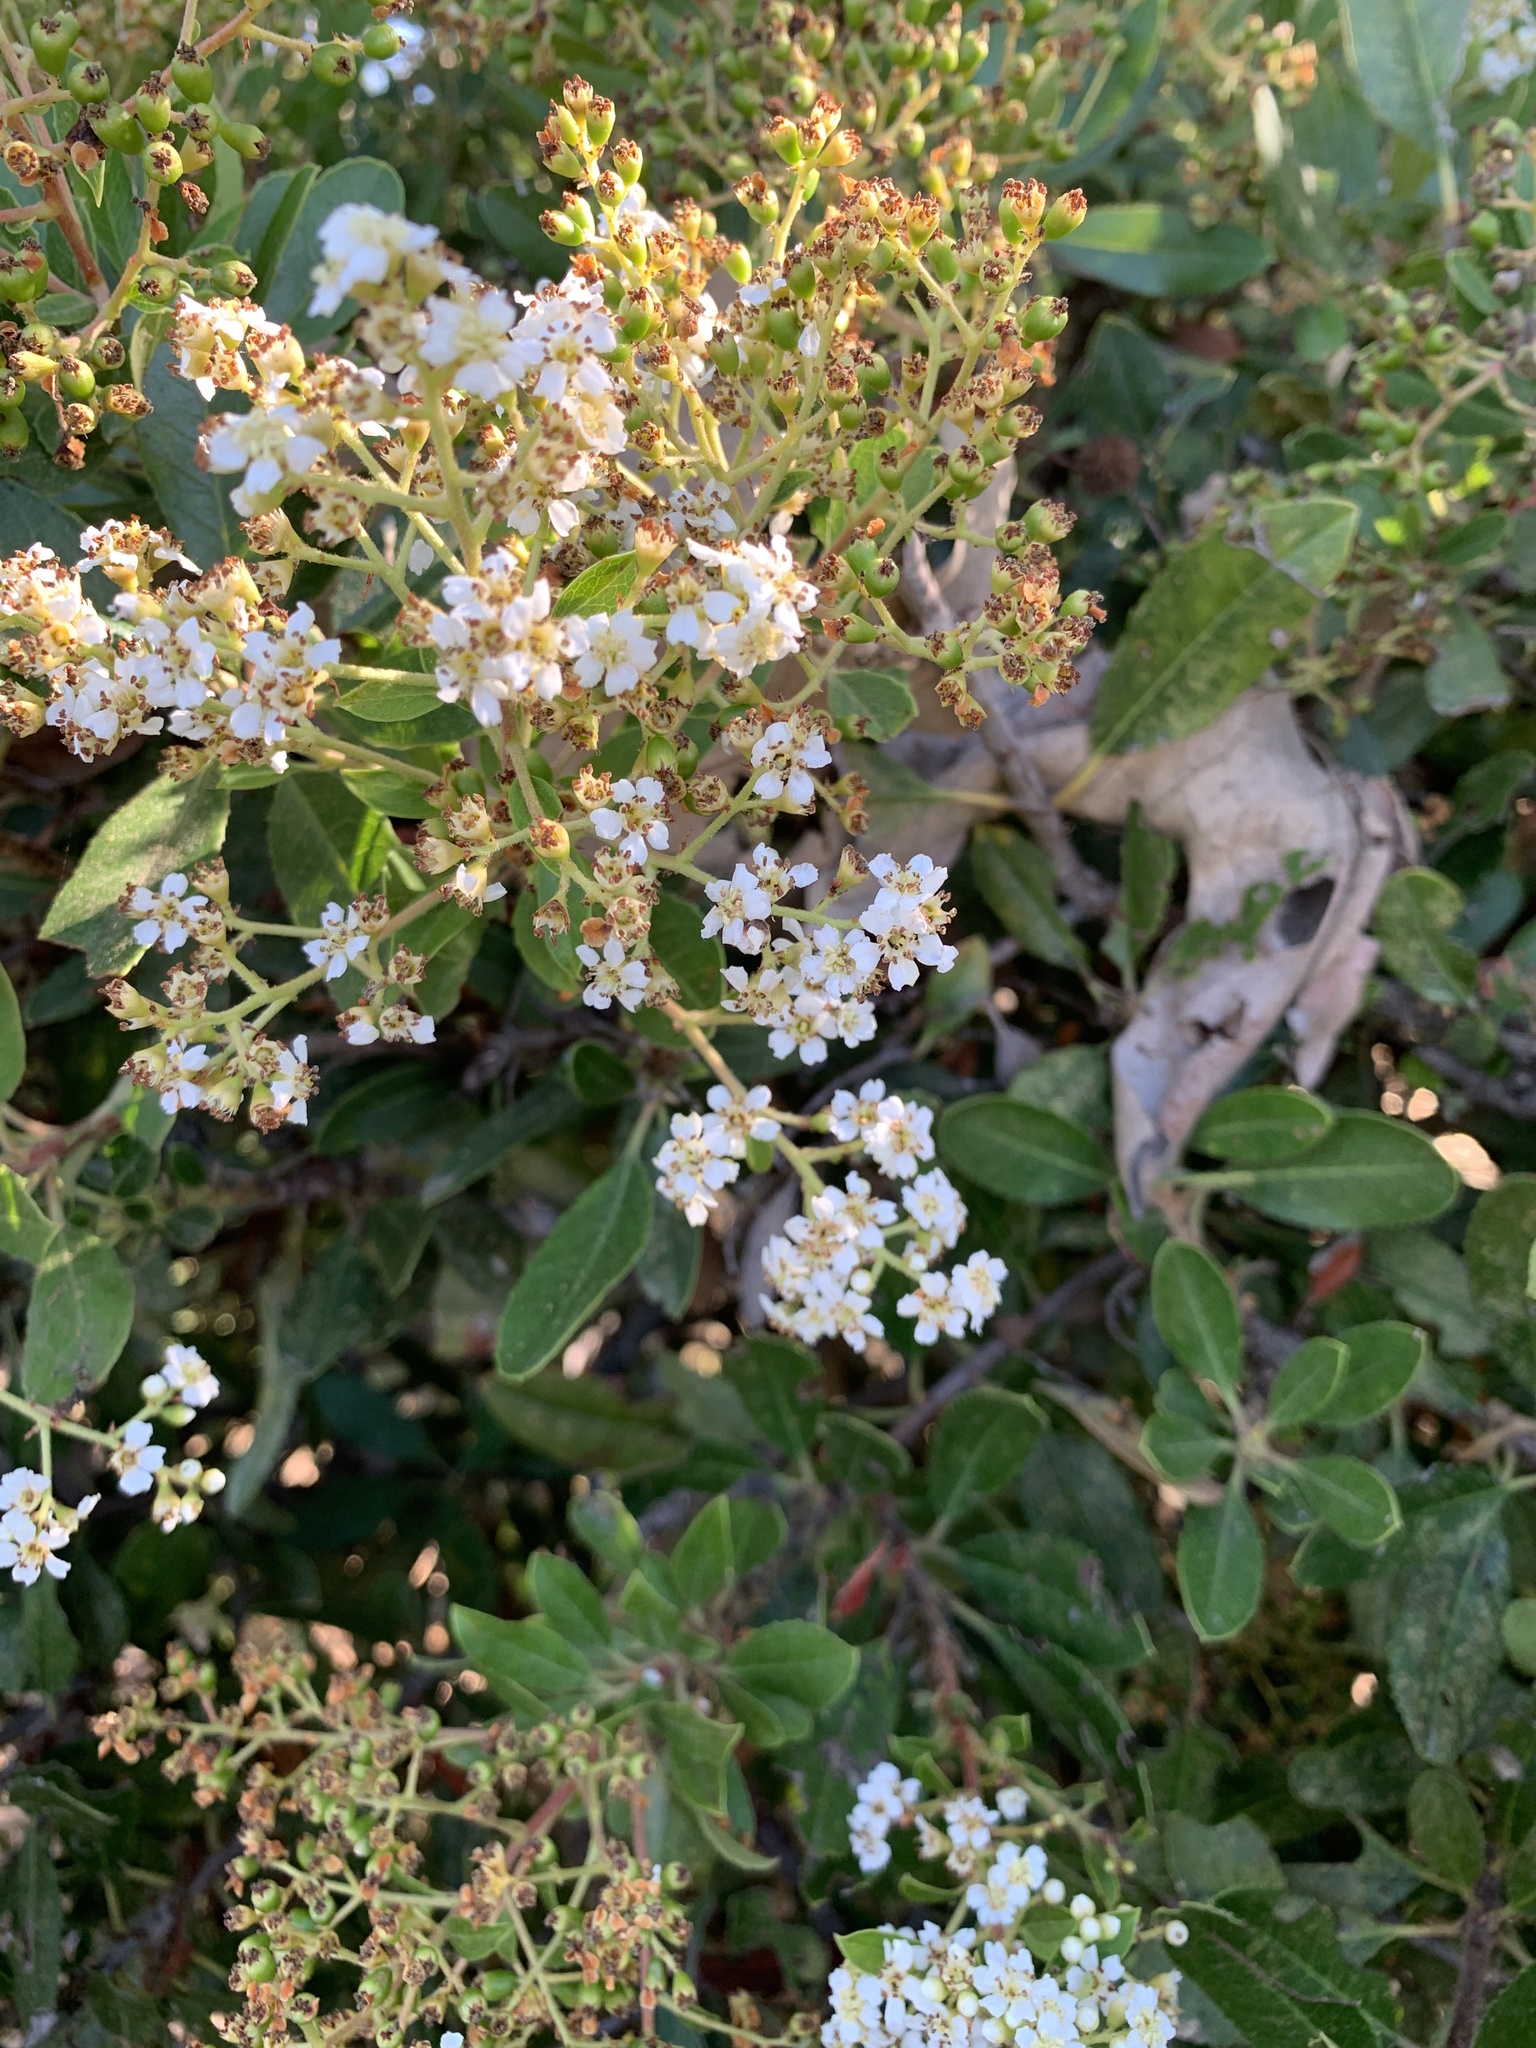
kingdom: Plantae
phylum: Tracheophyta
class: Magnoliopsida
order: Rosales
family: Rosaceae
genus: Heteromeles
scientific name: Heteromeles arbutifolia
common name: California-holly
